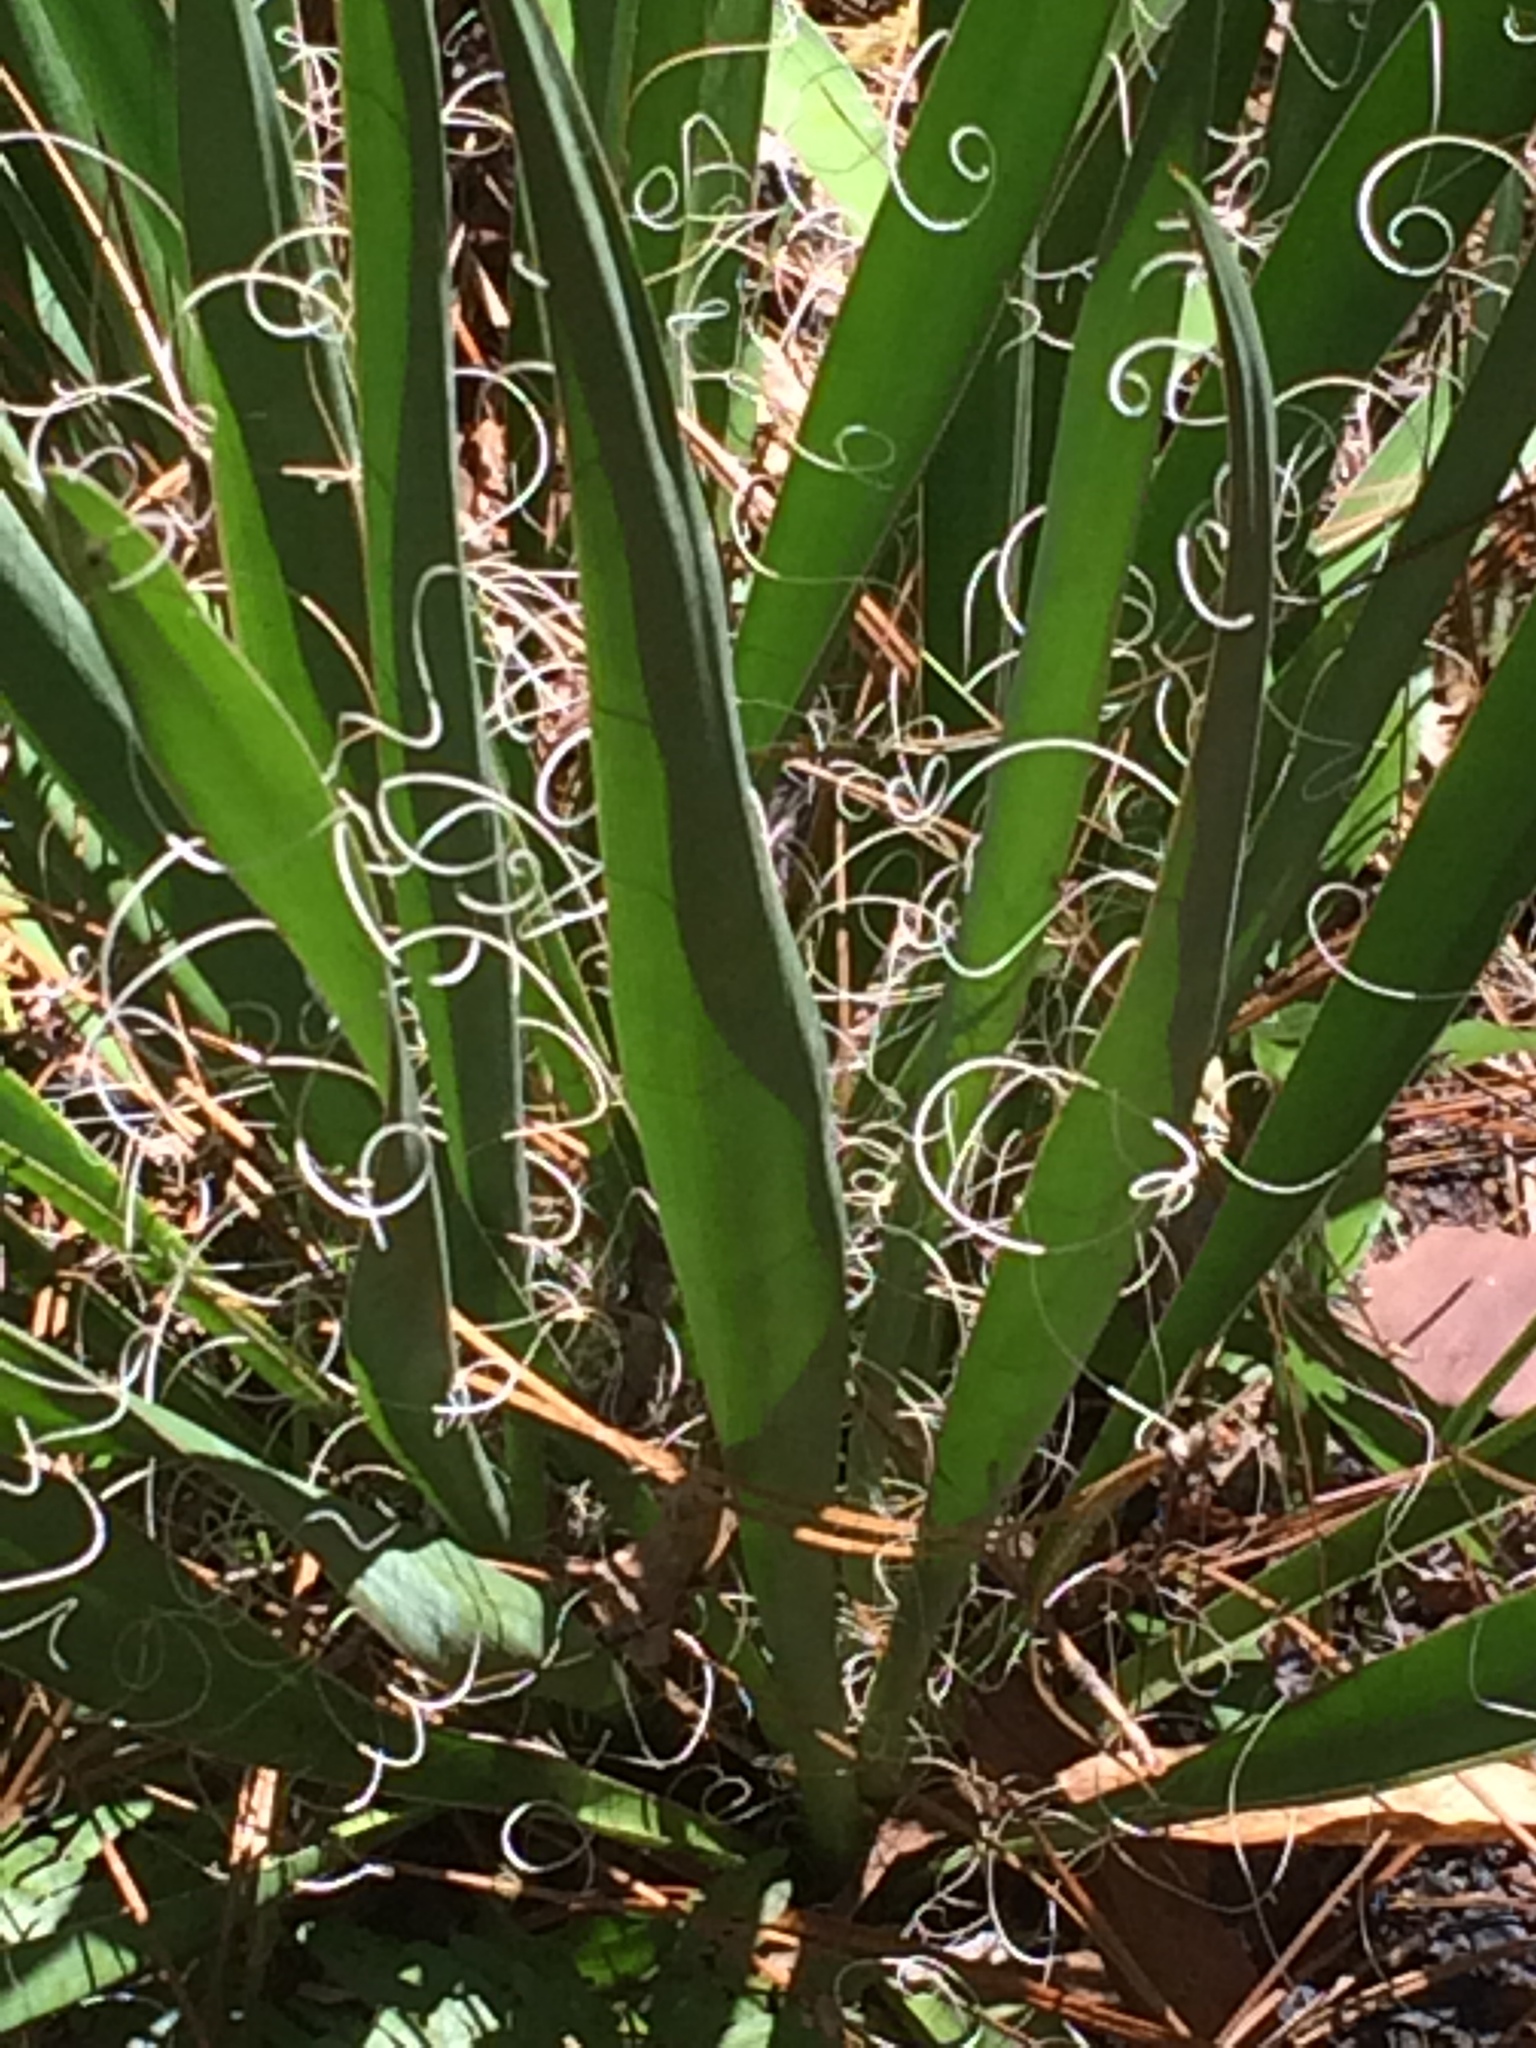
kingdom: Plantae
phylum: Tracheophyta
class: Liliopsida
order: Asparagales
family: Asparagaceae
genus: Yucca
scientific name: Yucca filamentosa
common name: Adam's-needle
